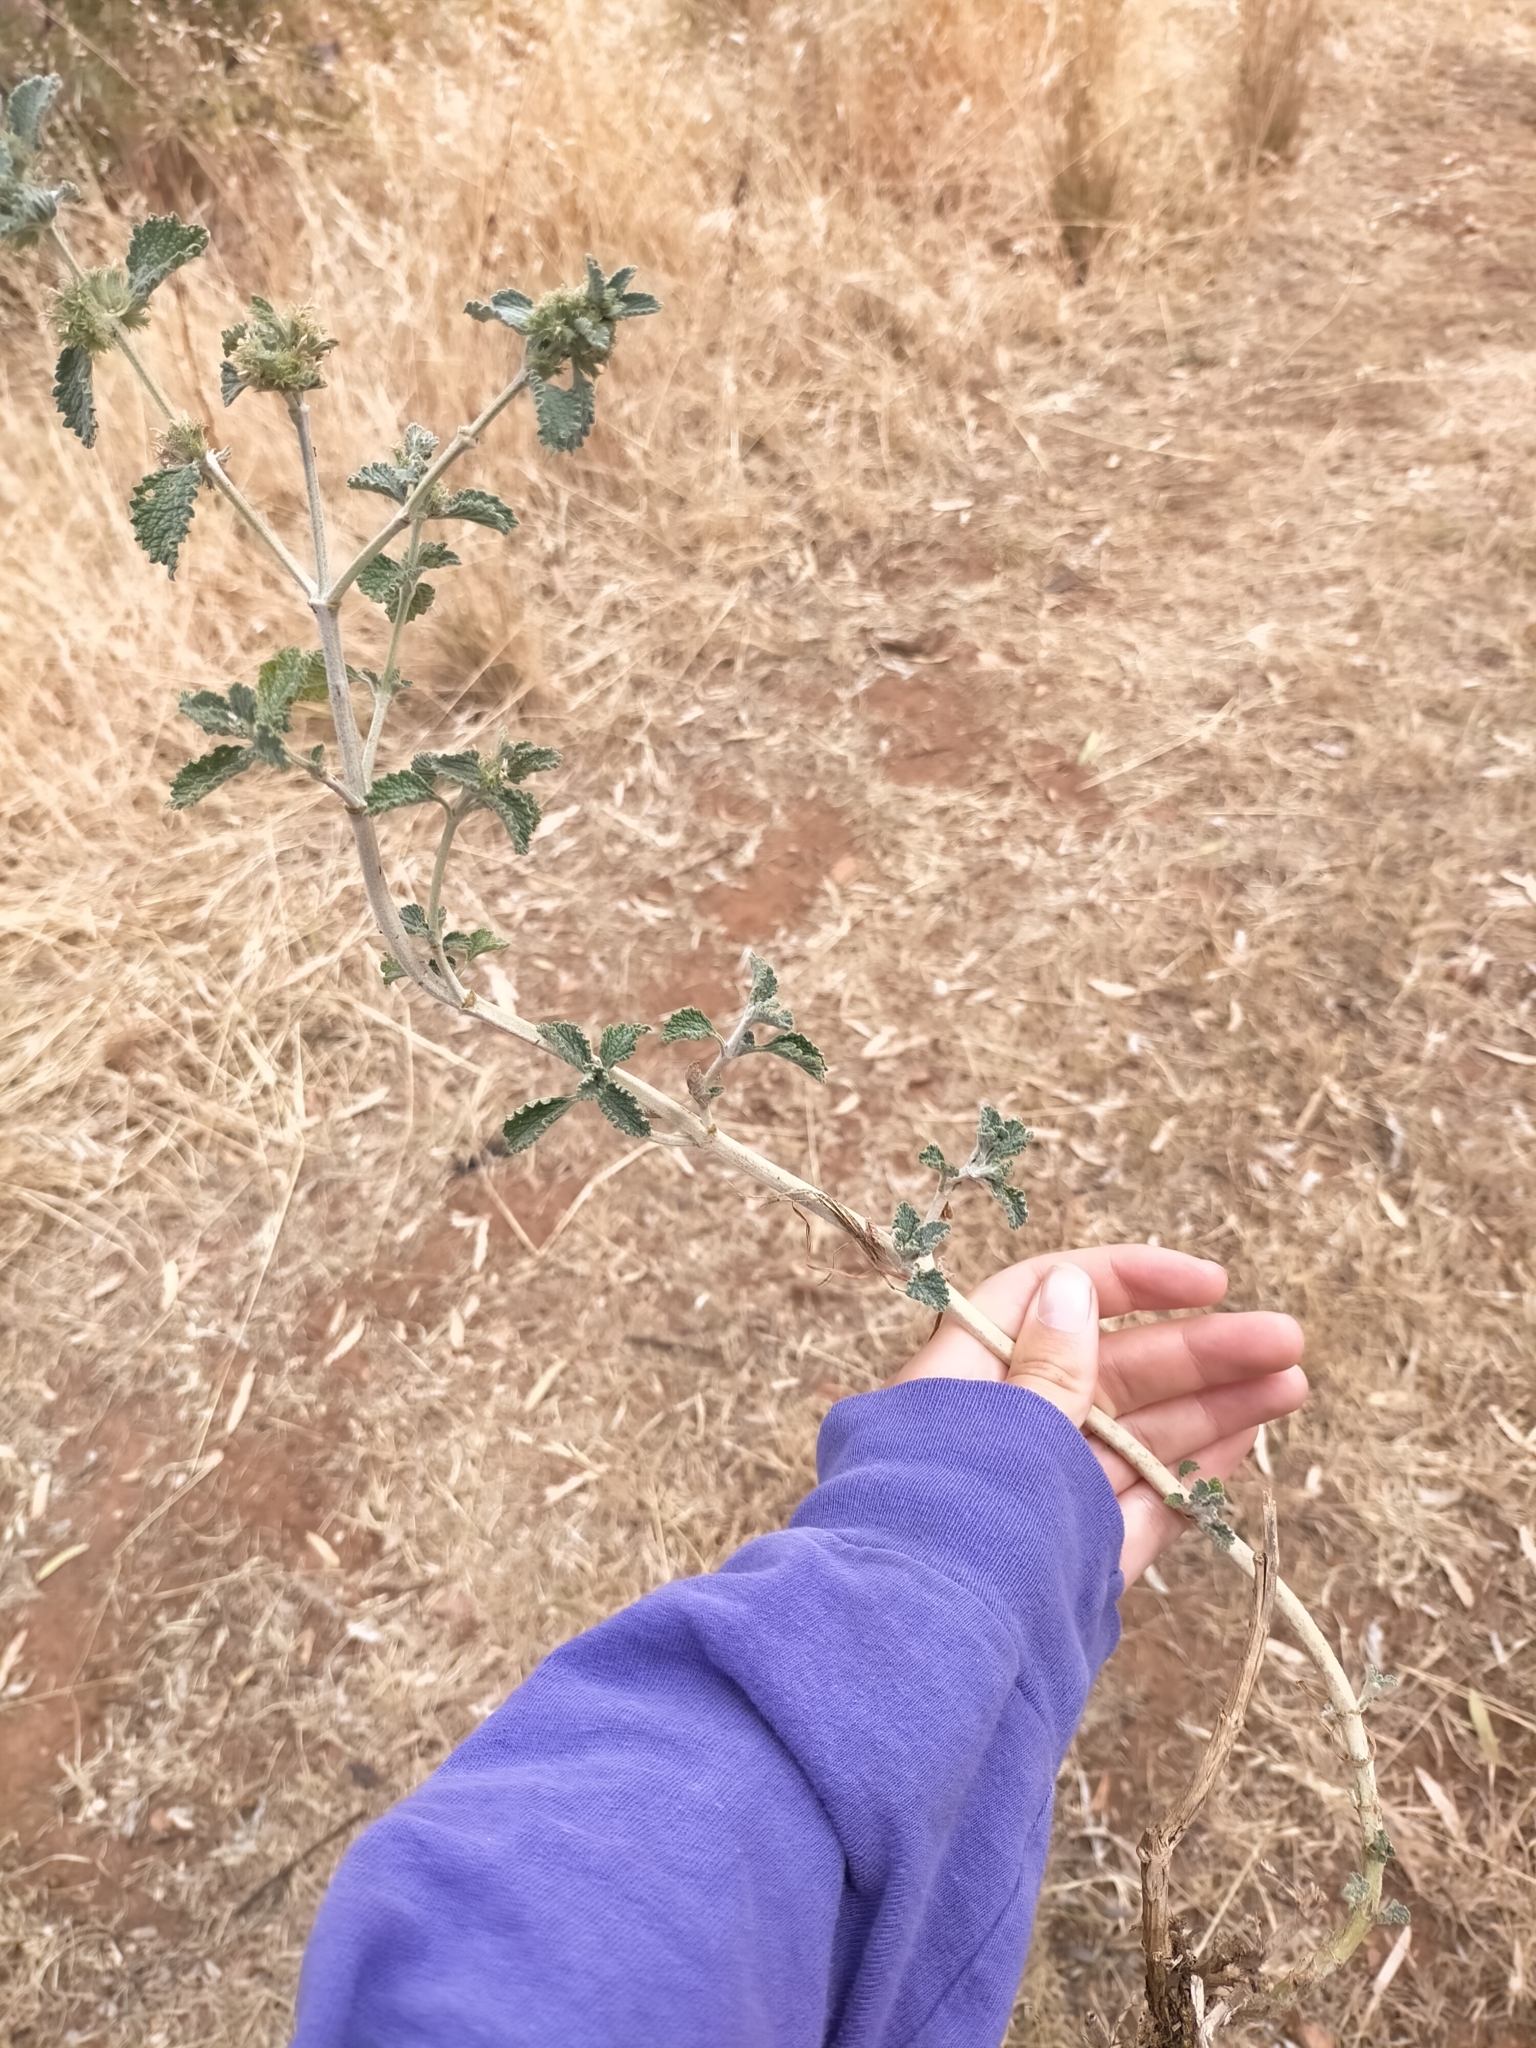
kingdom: Plantae
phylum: Tracheophyta
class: Magnoliopsida
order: Lamiales
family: Lamiaceae
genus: Marrubium
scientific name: Marrubium vulgare
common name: Horehound
